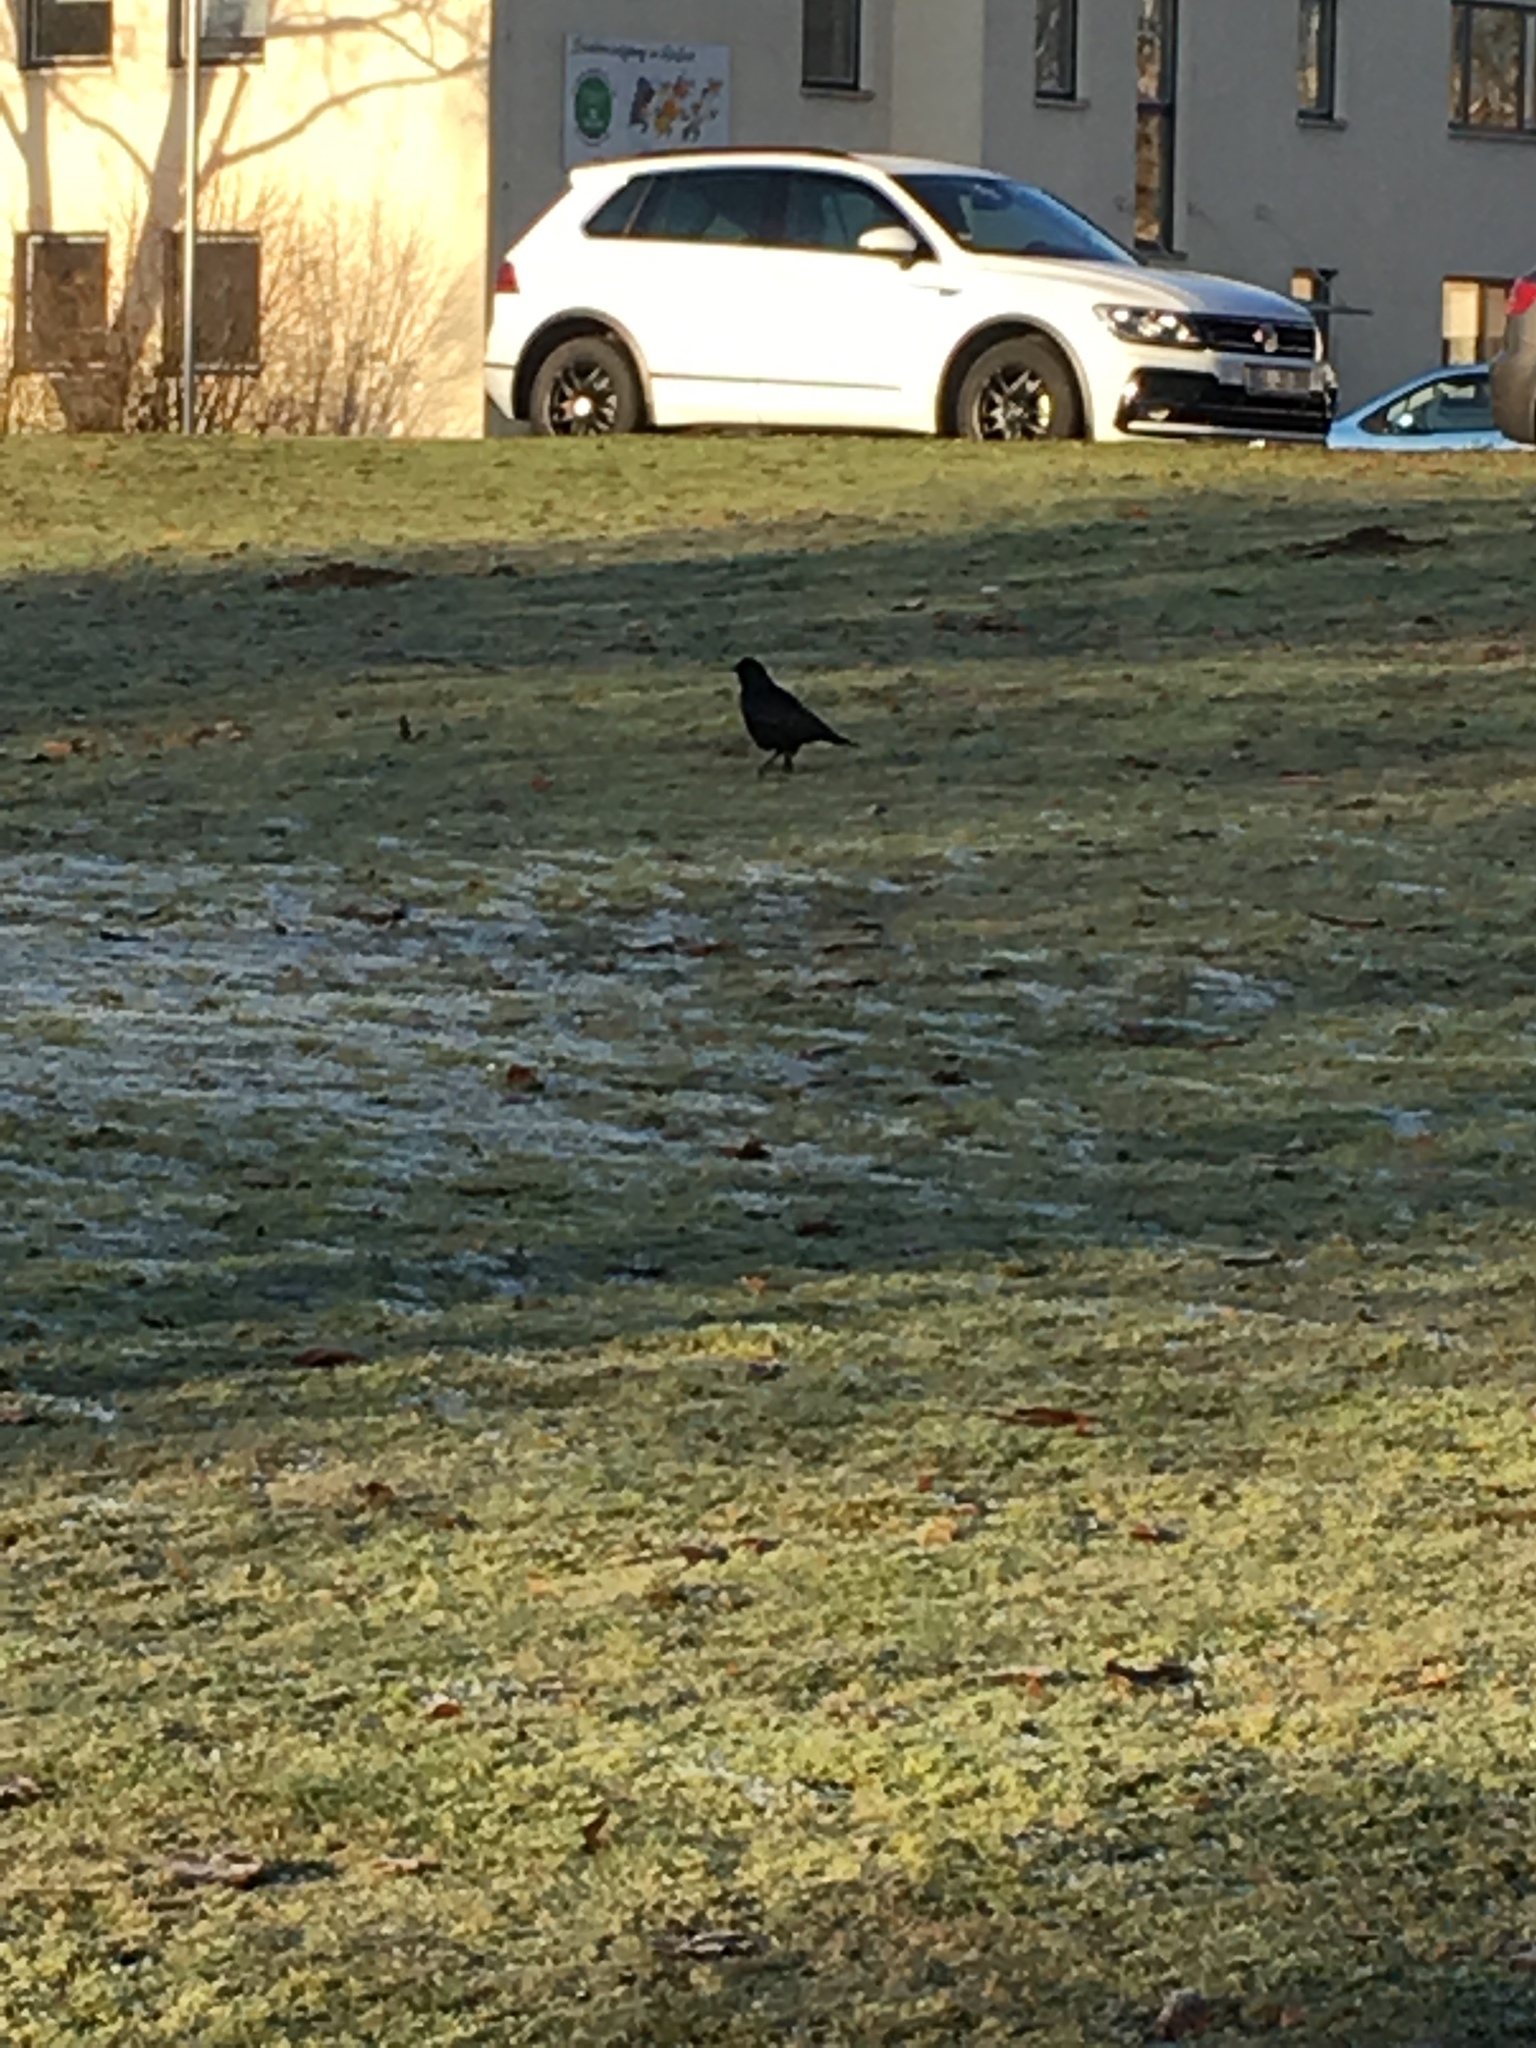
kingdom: Animalia
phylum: Chordata
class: Aves
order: Passeriformes
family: Corvidae
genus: Corvus
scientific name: Corvus corone
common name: Carrion crow
